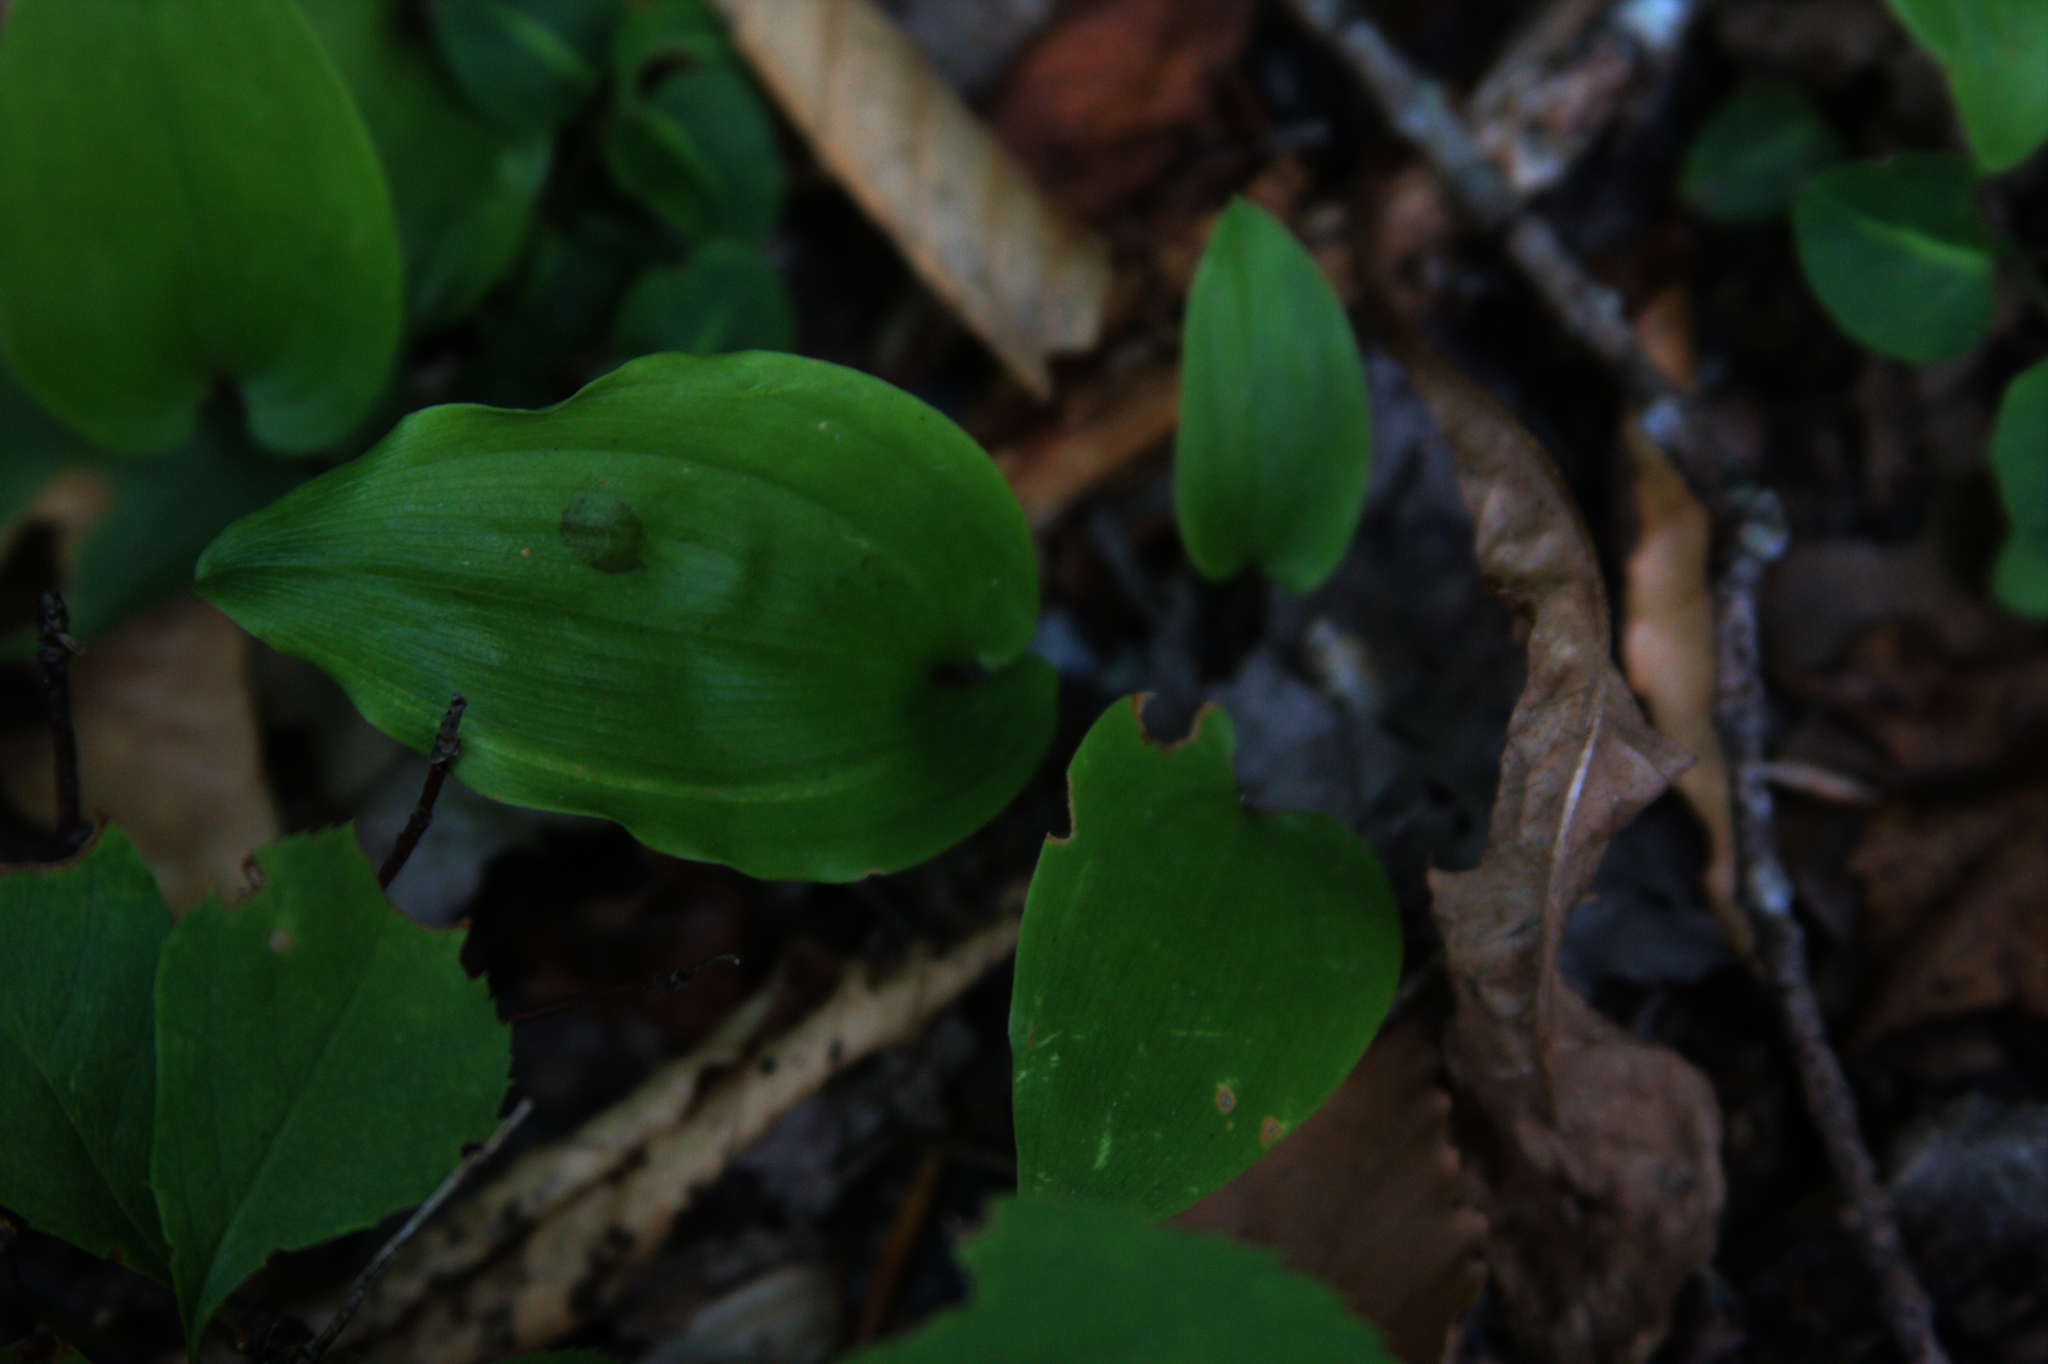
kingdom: Plantae
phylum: Tracheophyta
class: Liliopsida
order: Asparagales
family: Asparagaceae
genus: Maianthemum
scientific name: Maianthemum canadense
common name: False lily-of-the-valley
